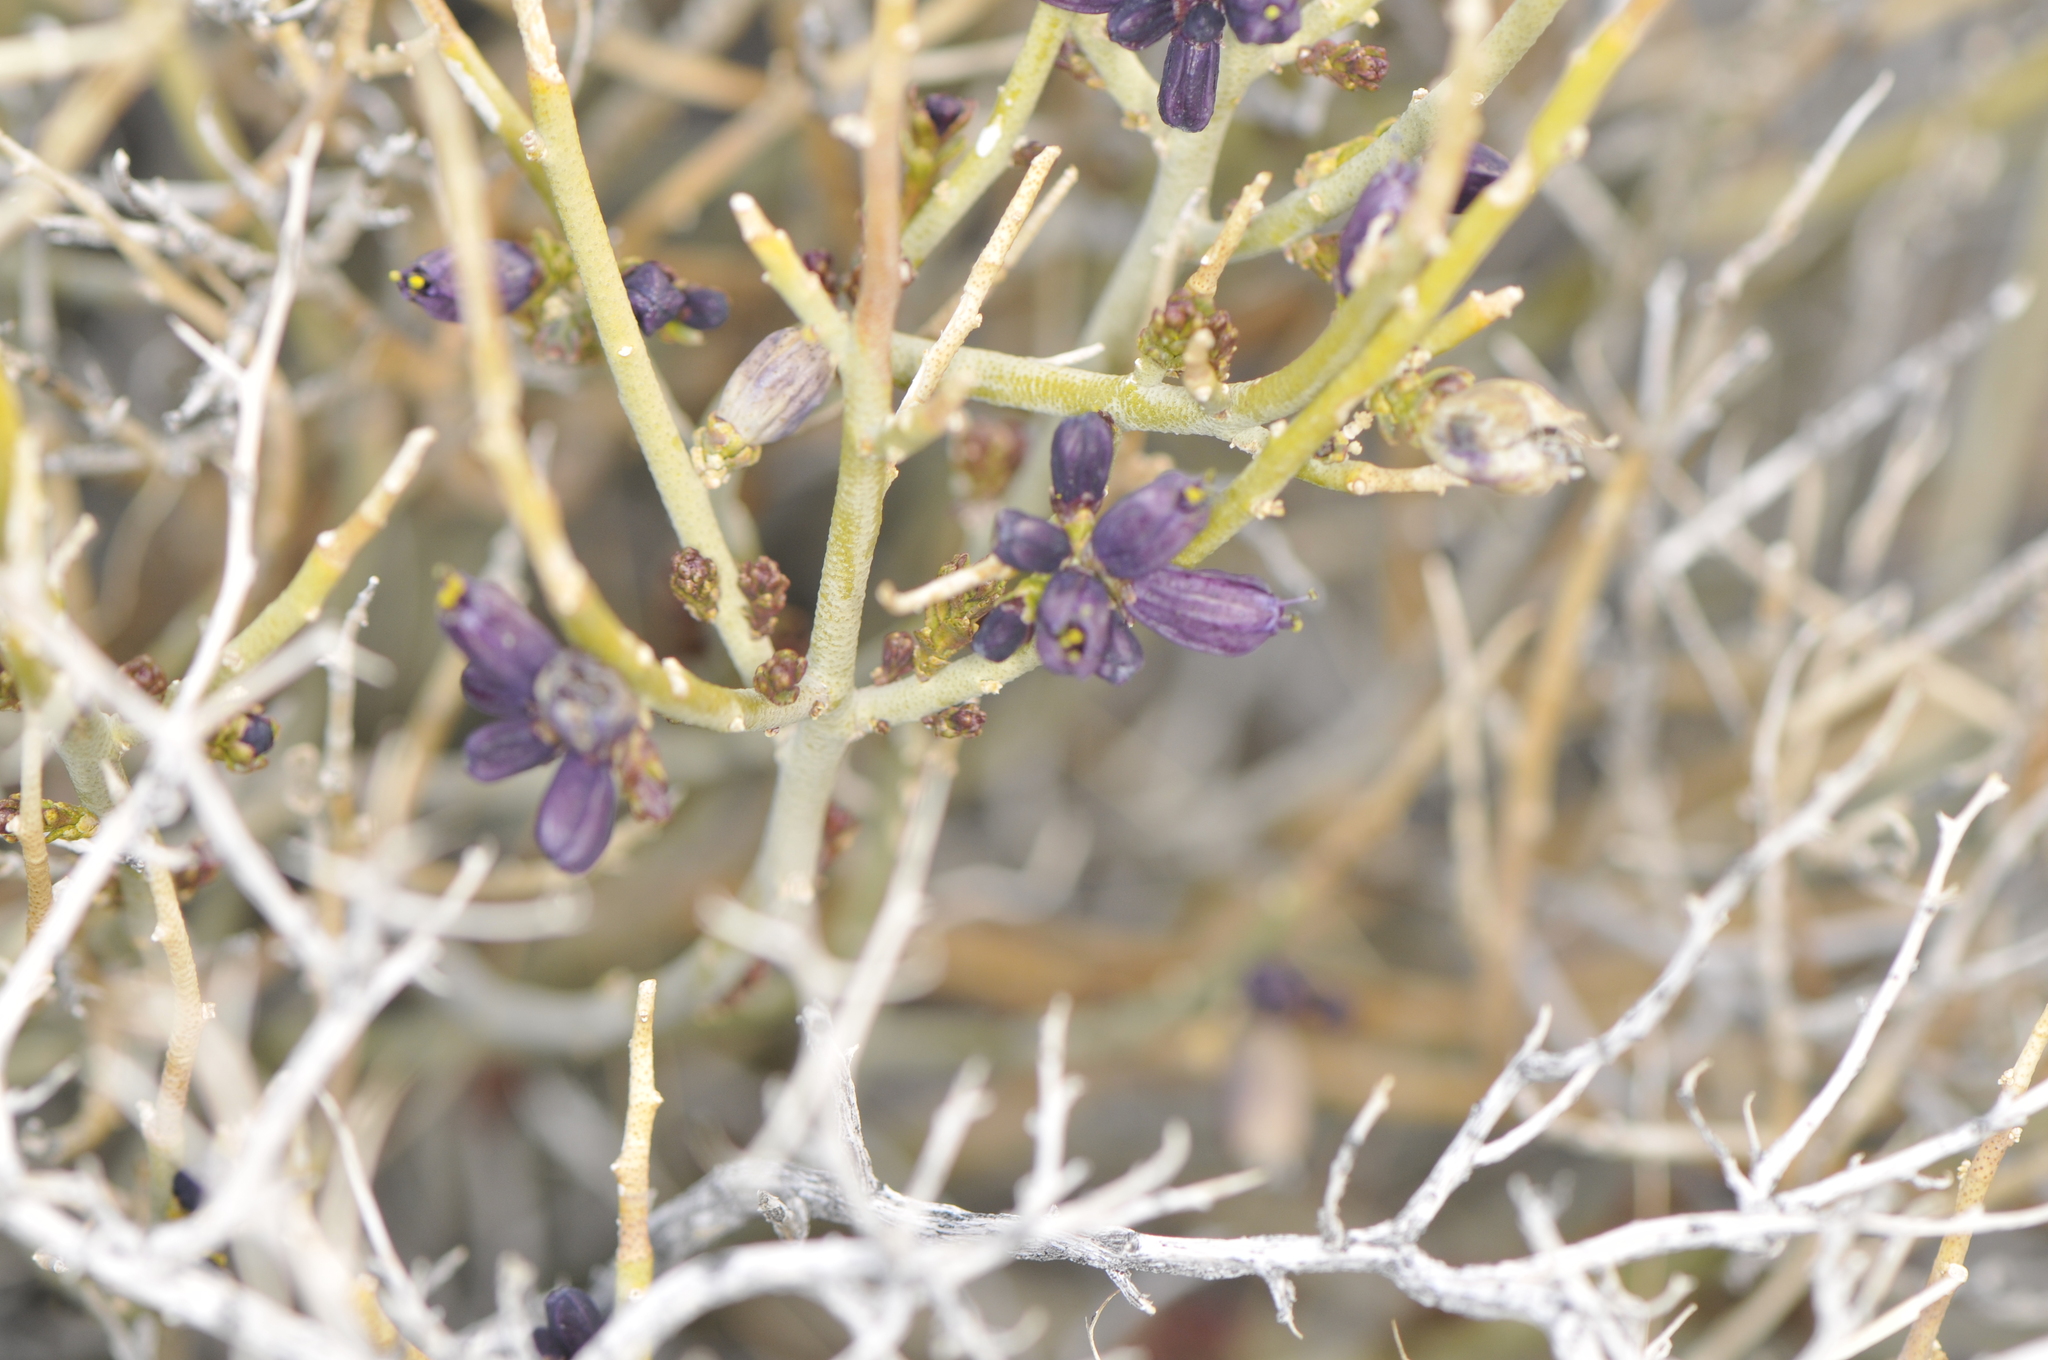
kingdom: Plantae
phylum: Tracheophyta
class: Magnoliopsida
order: Sapindales
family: Rutaceae
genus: Thamnosma
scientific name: Thamnosma montana
